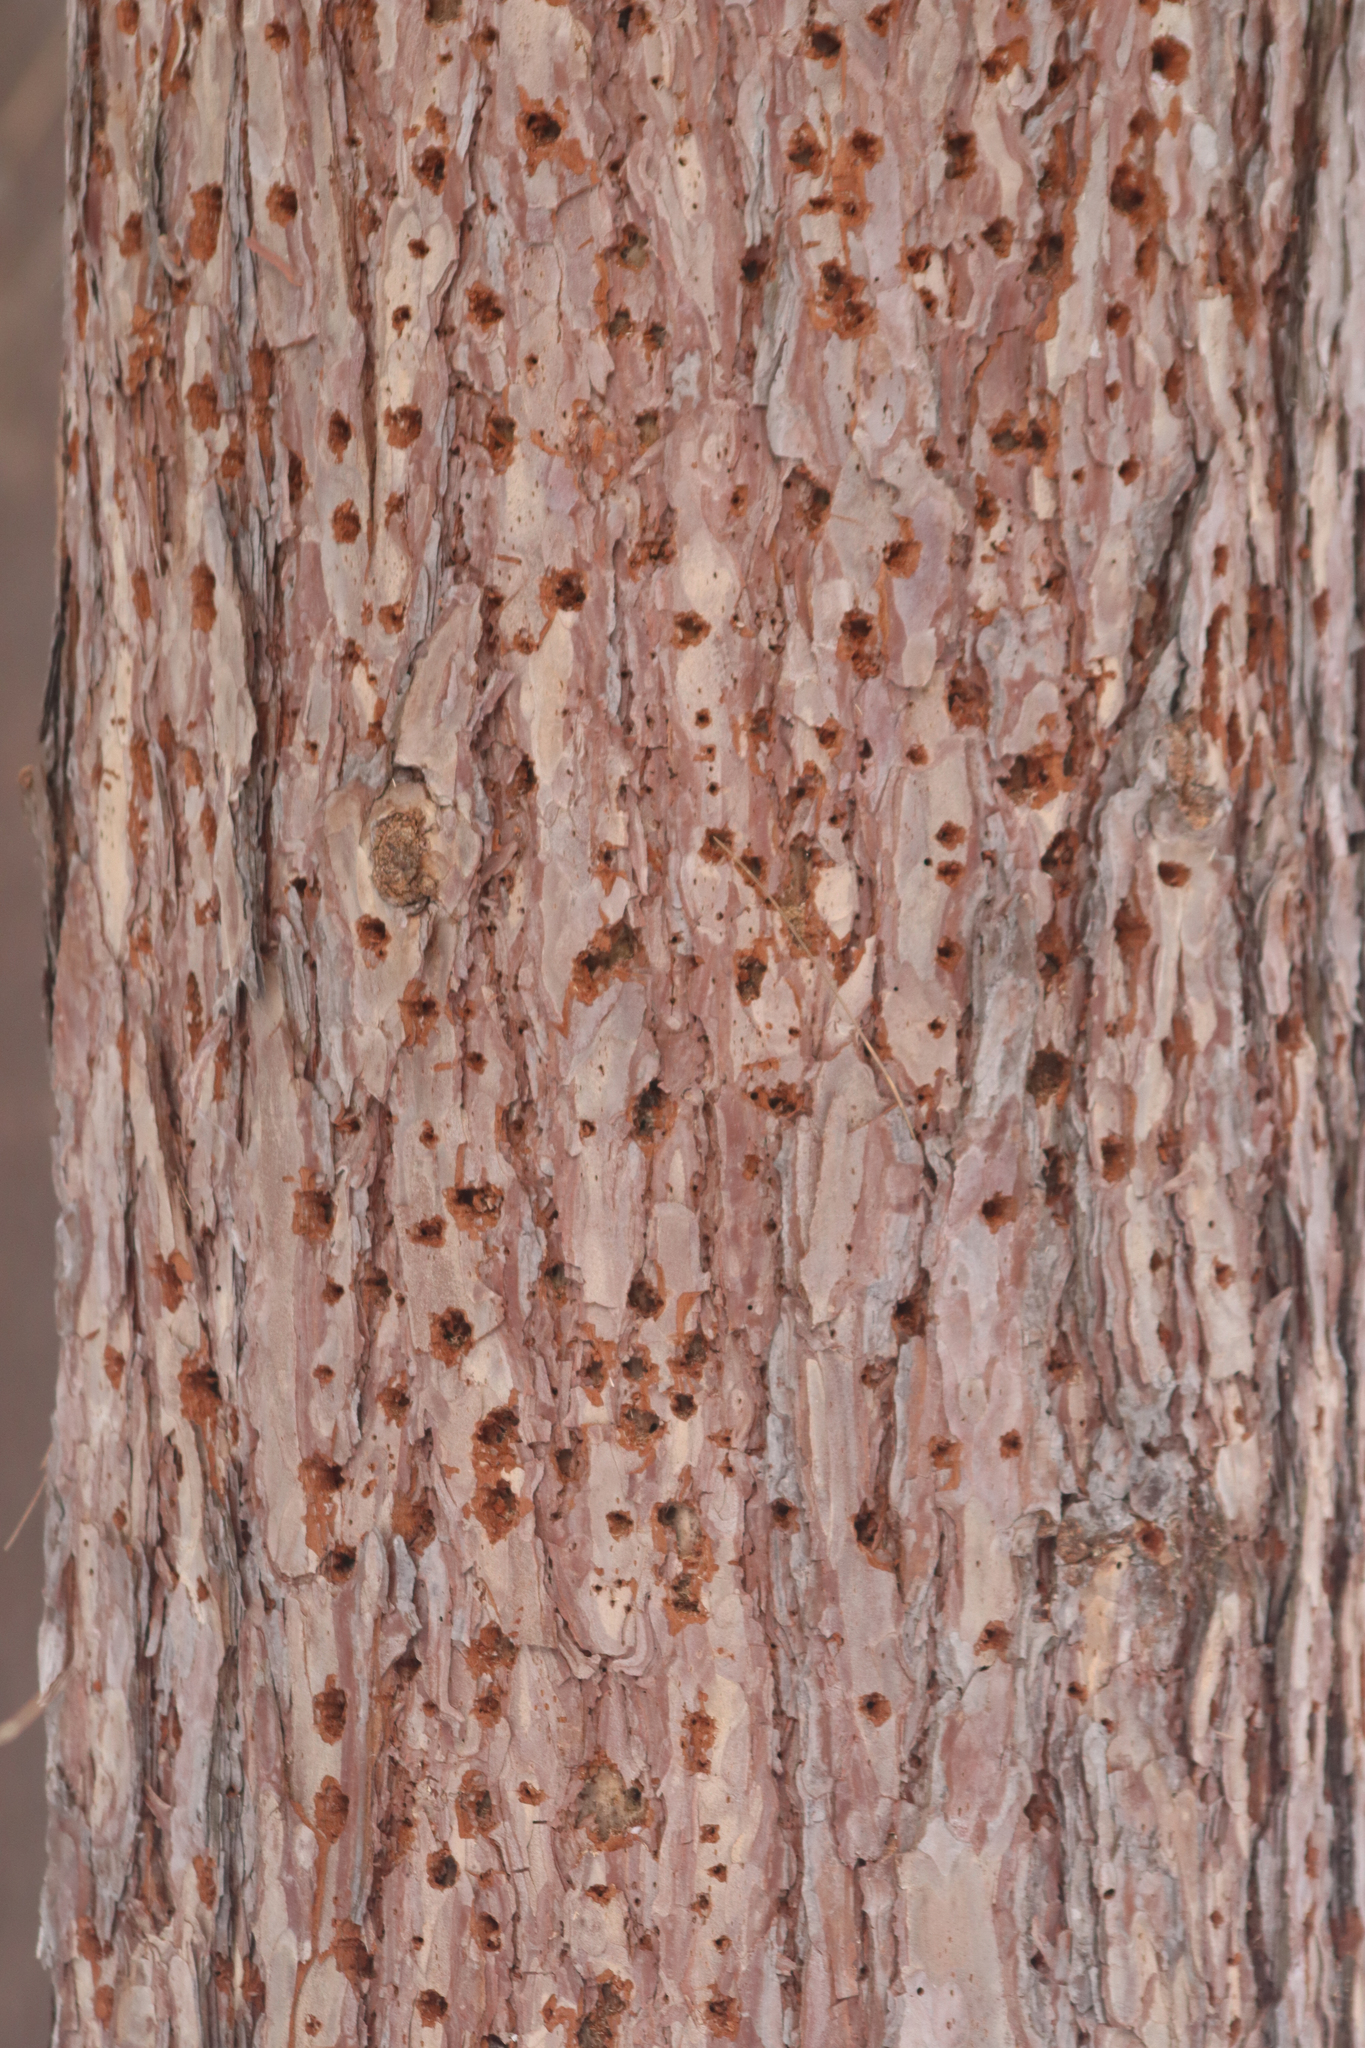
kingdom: Animalia
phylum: Chordata
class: Aves
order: Piciformes
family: Picidae
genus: Sphyrapicus
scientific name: Sphyrapicus varius
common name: Yellow-bellied sapsucker
